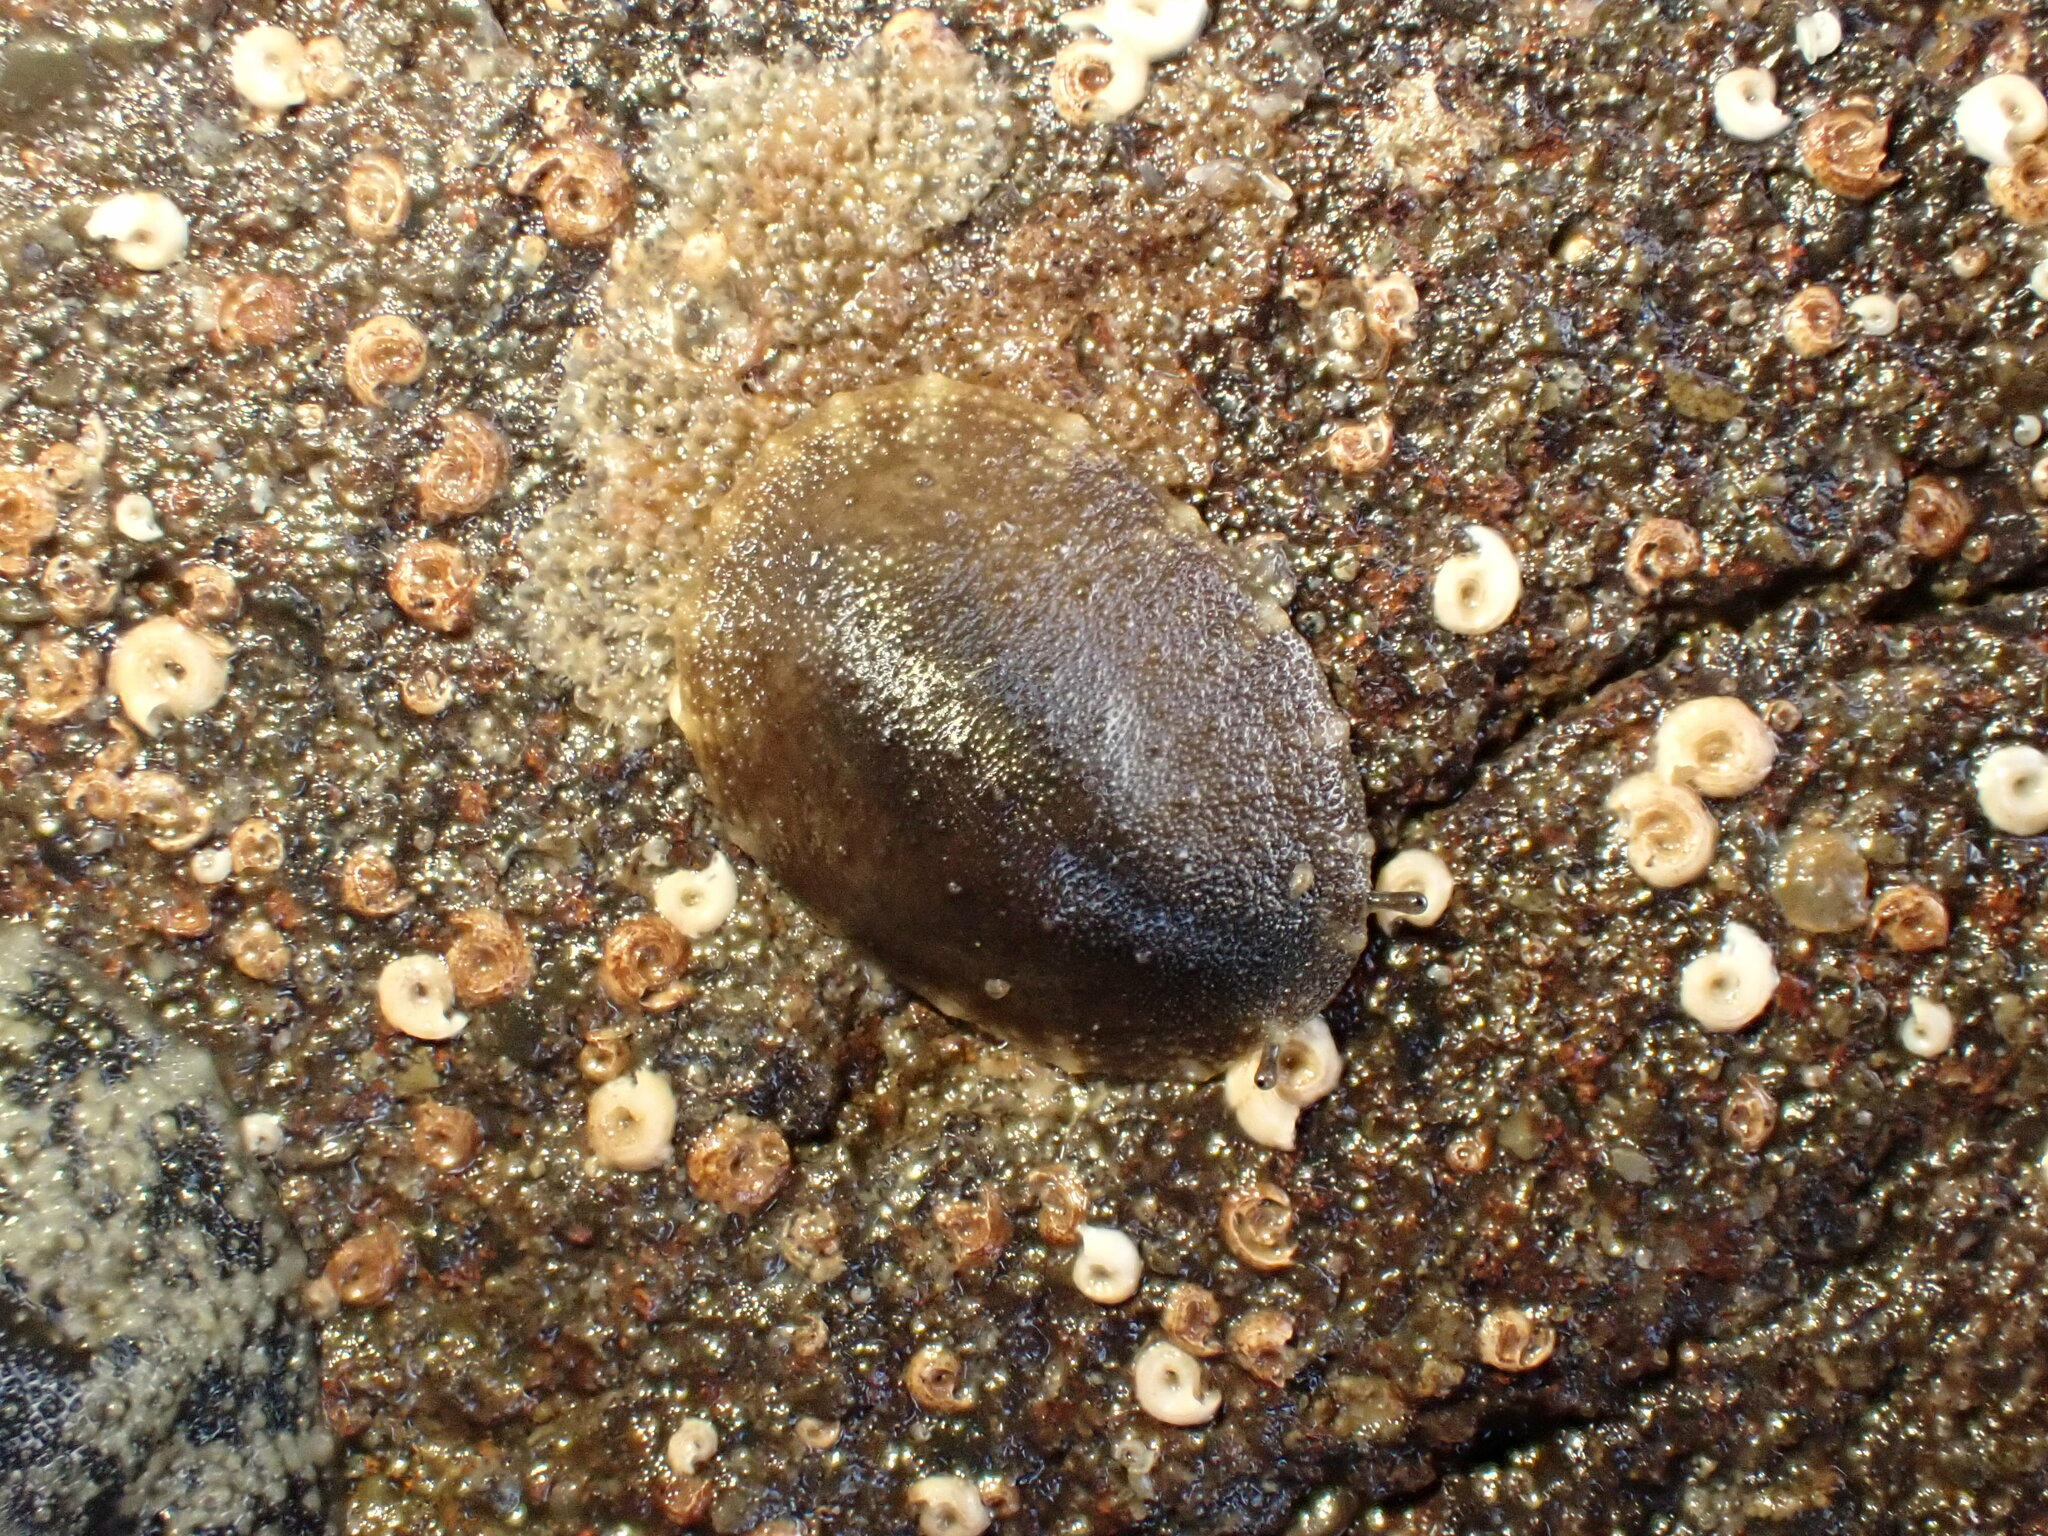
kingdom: Animalia
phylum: Mollusca
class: Gastropoda
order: Systellommatophora
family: Onchidiidae
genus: Onchidella
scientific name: Onchidella nigricans
